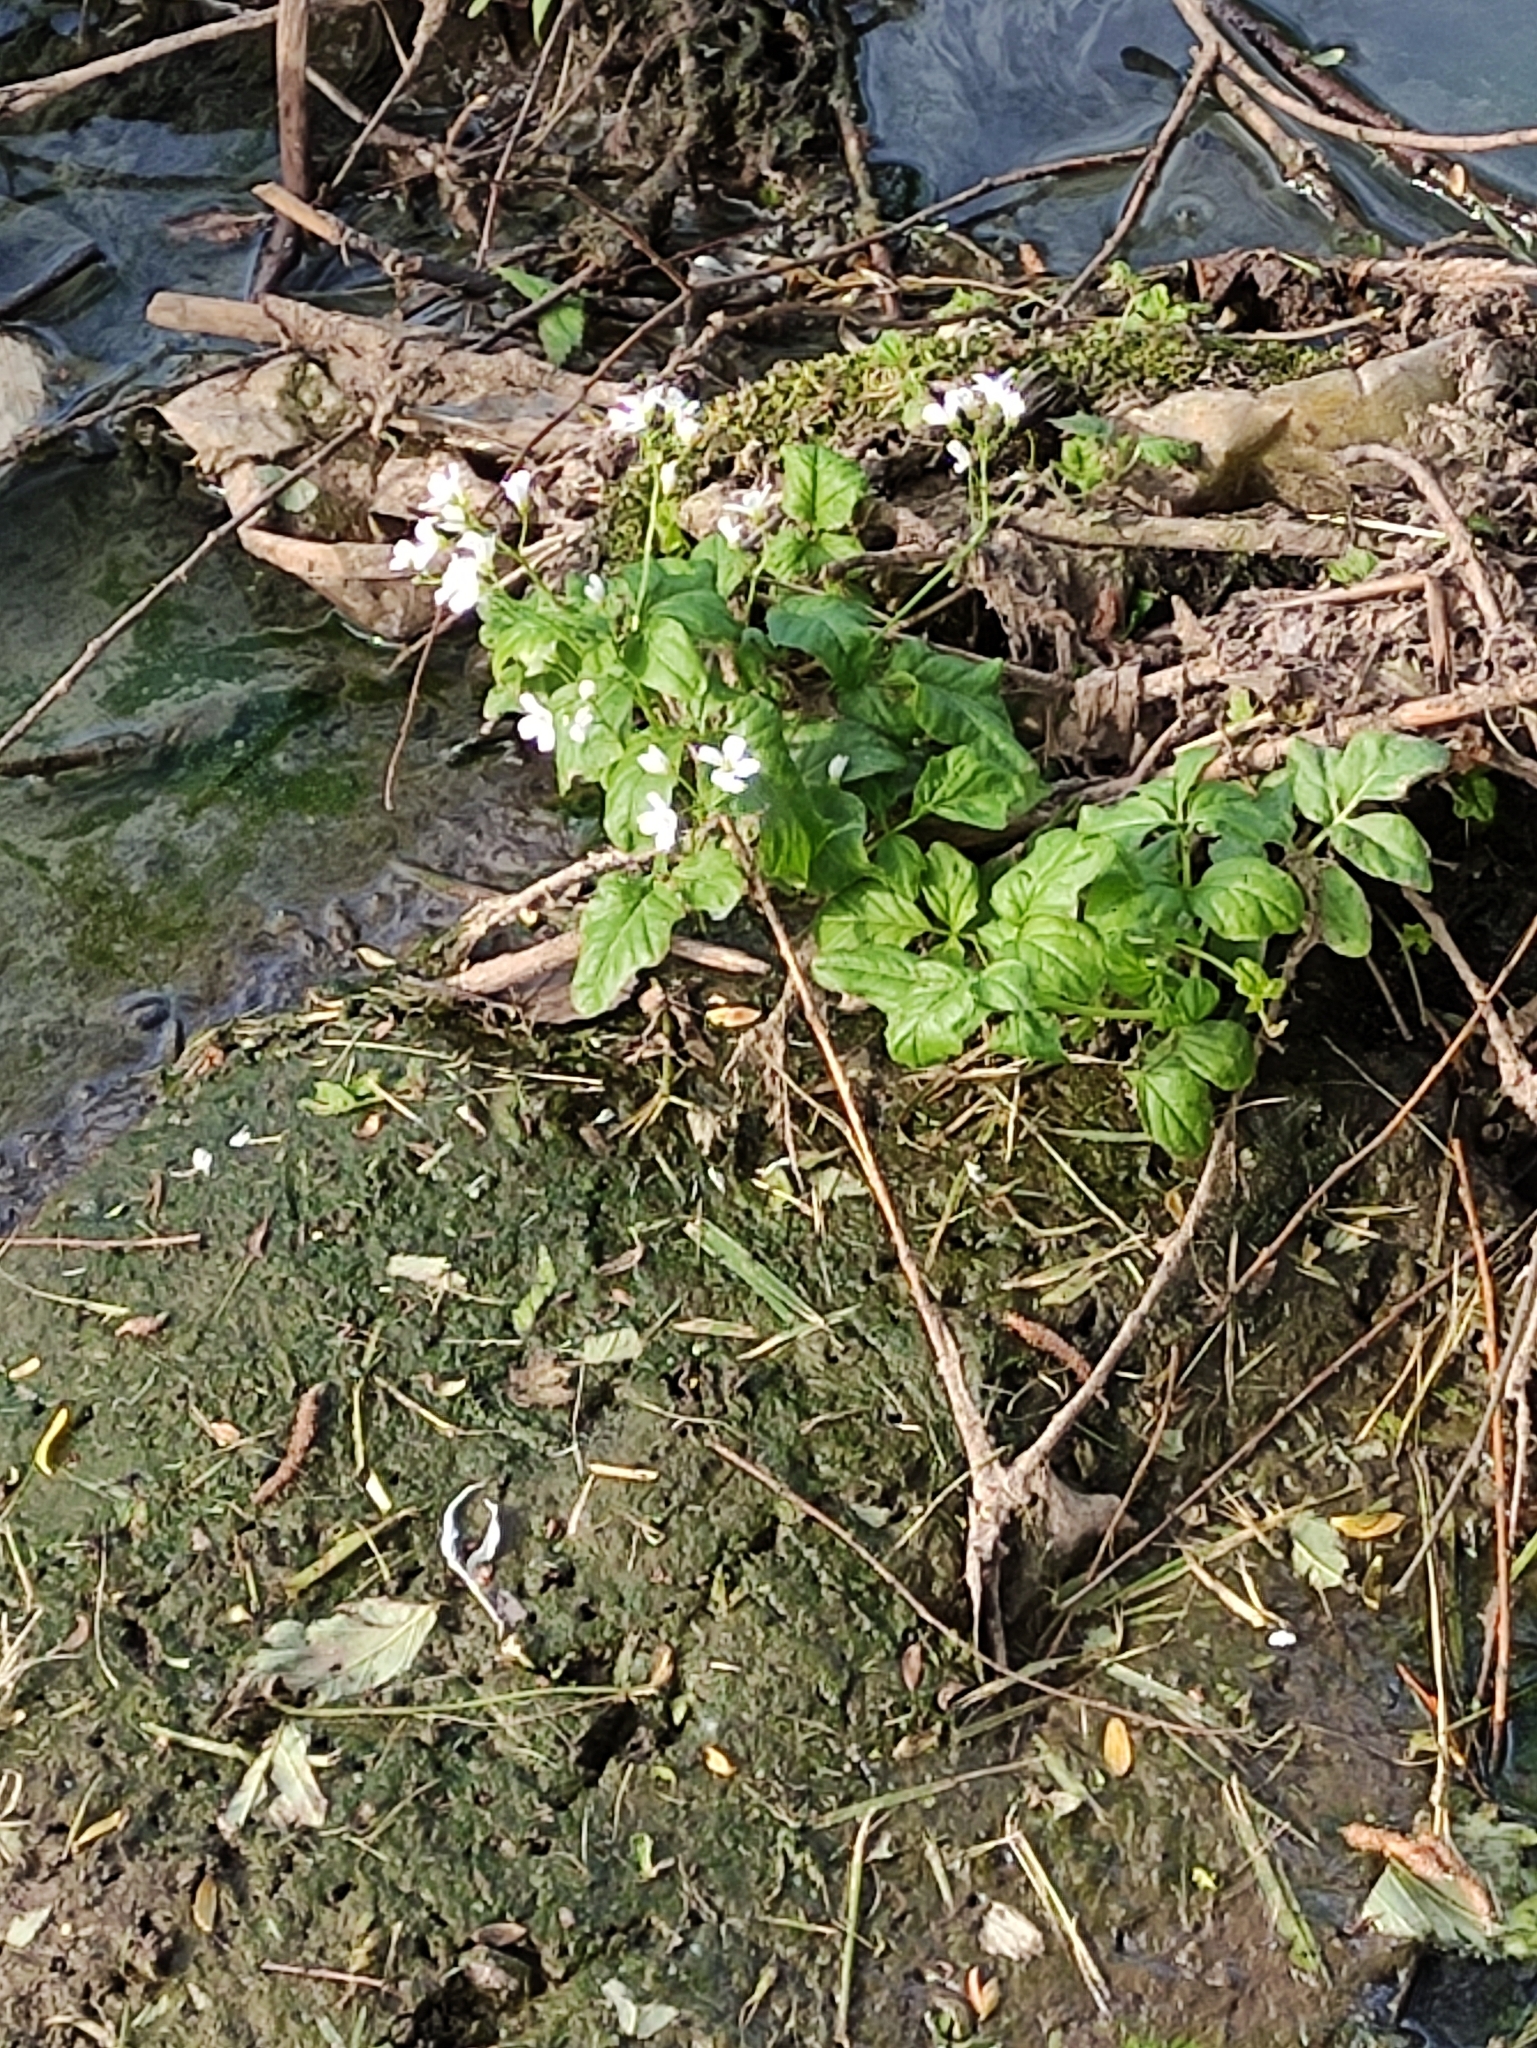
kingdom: Plantae
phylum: Tracheophyta
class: Magnoliopsida
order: Brassicales
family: Brassicaceae
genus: Cardamine
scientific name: Cardamine amara
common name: Large bitter-cress
